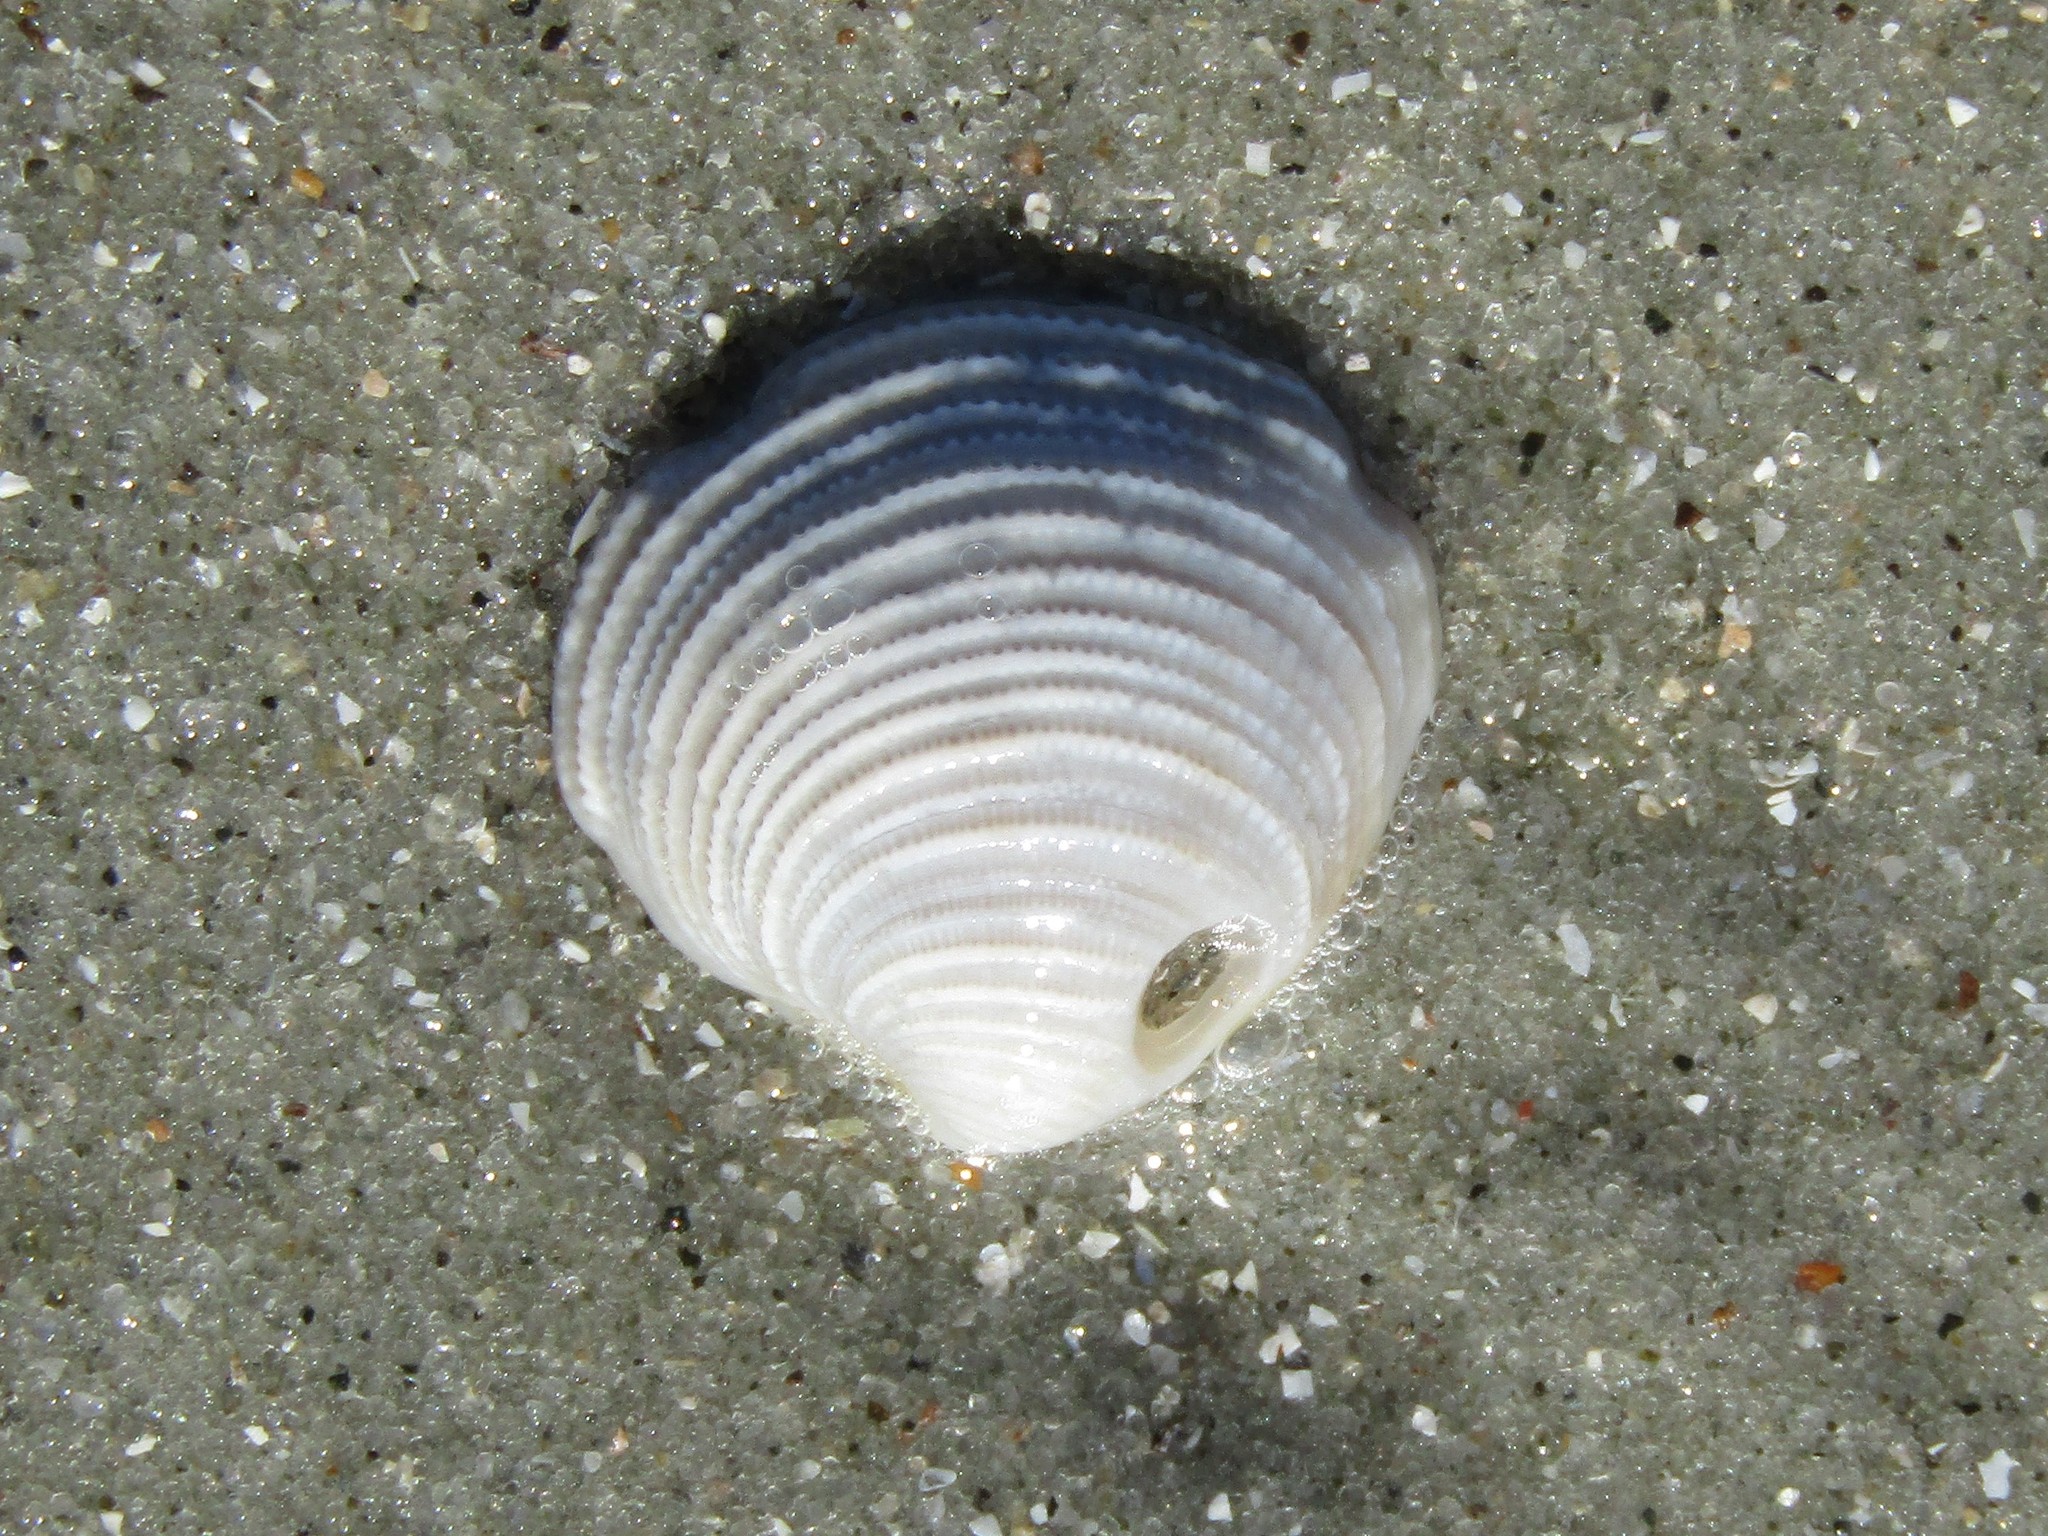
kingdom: Animalia
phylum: Mollusca
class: Bivalvia
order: Venerida
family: Veneridae
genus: Chionopsis
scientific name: Chionopsis intapurpurea
